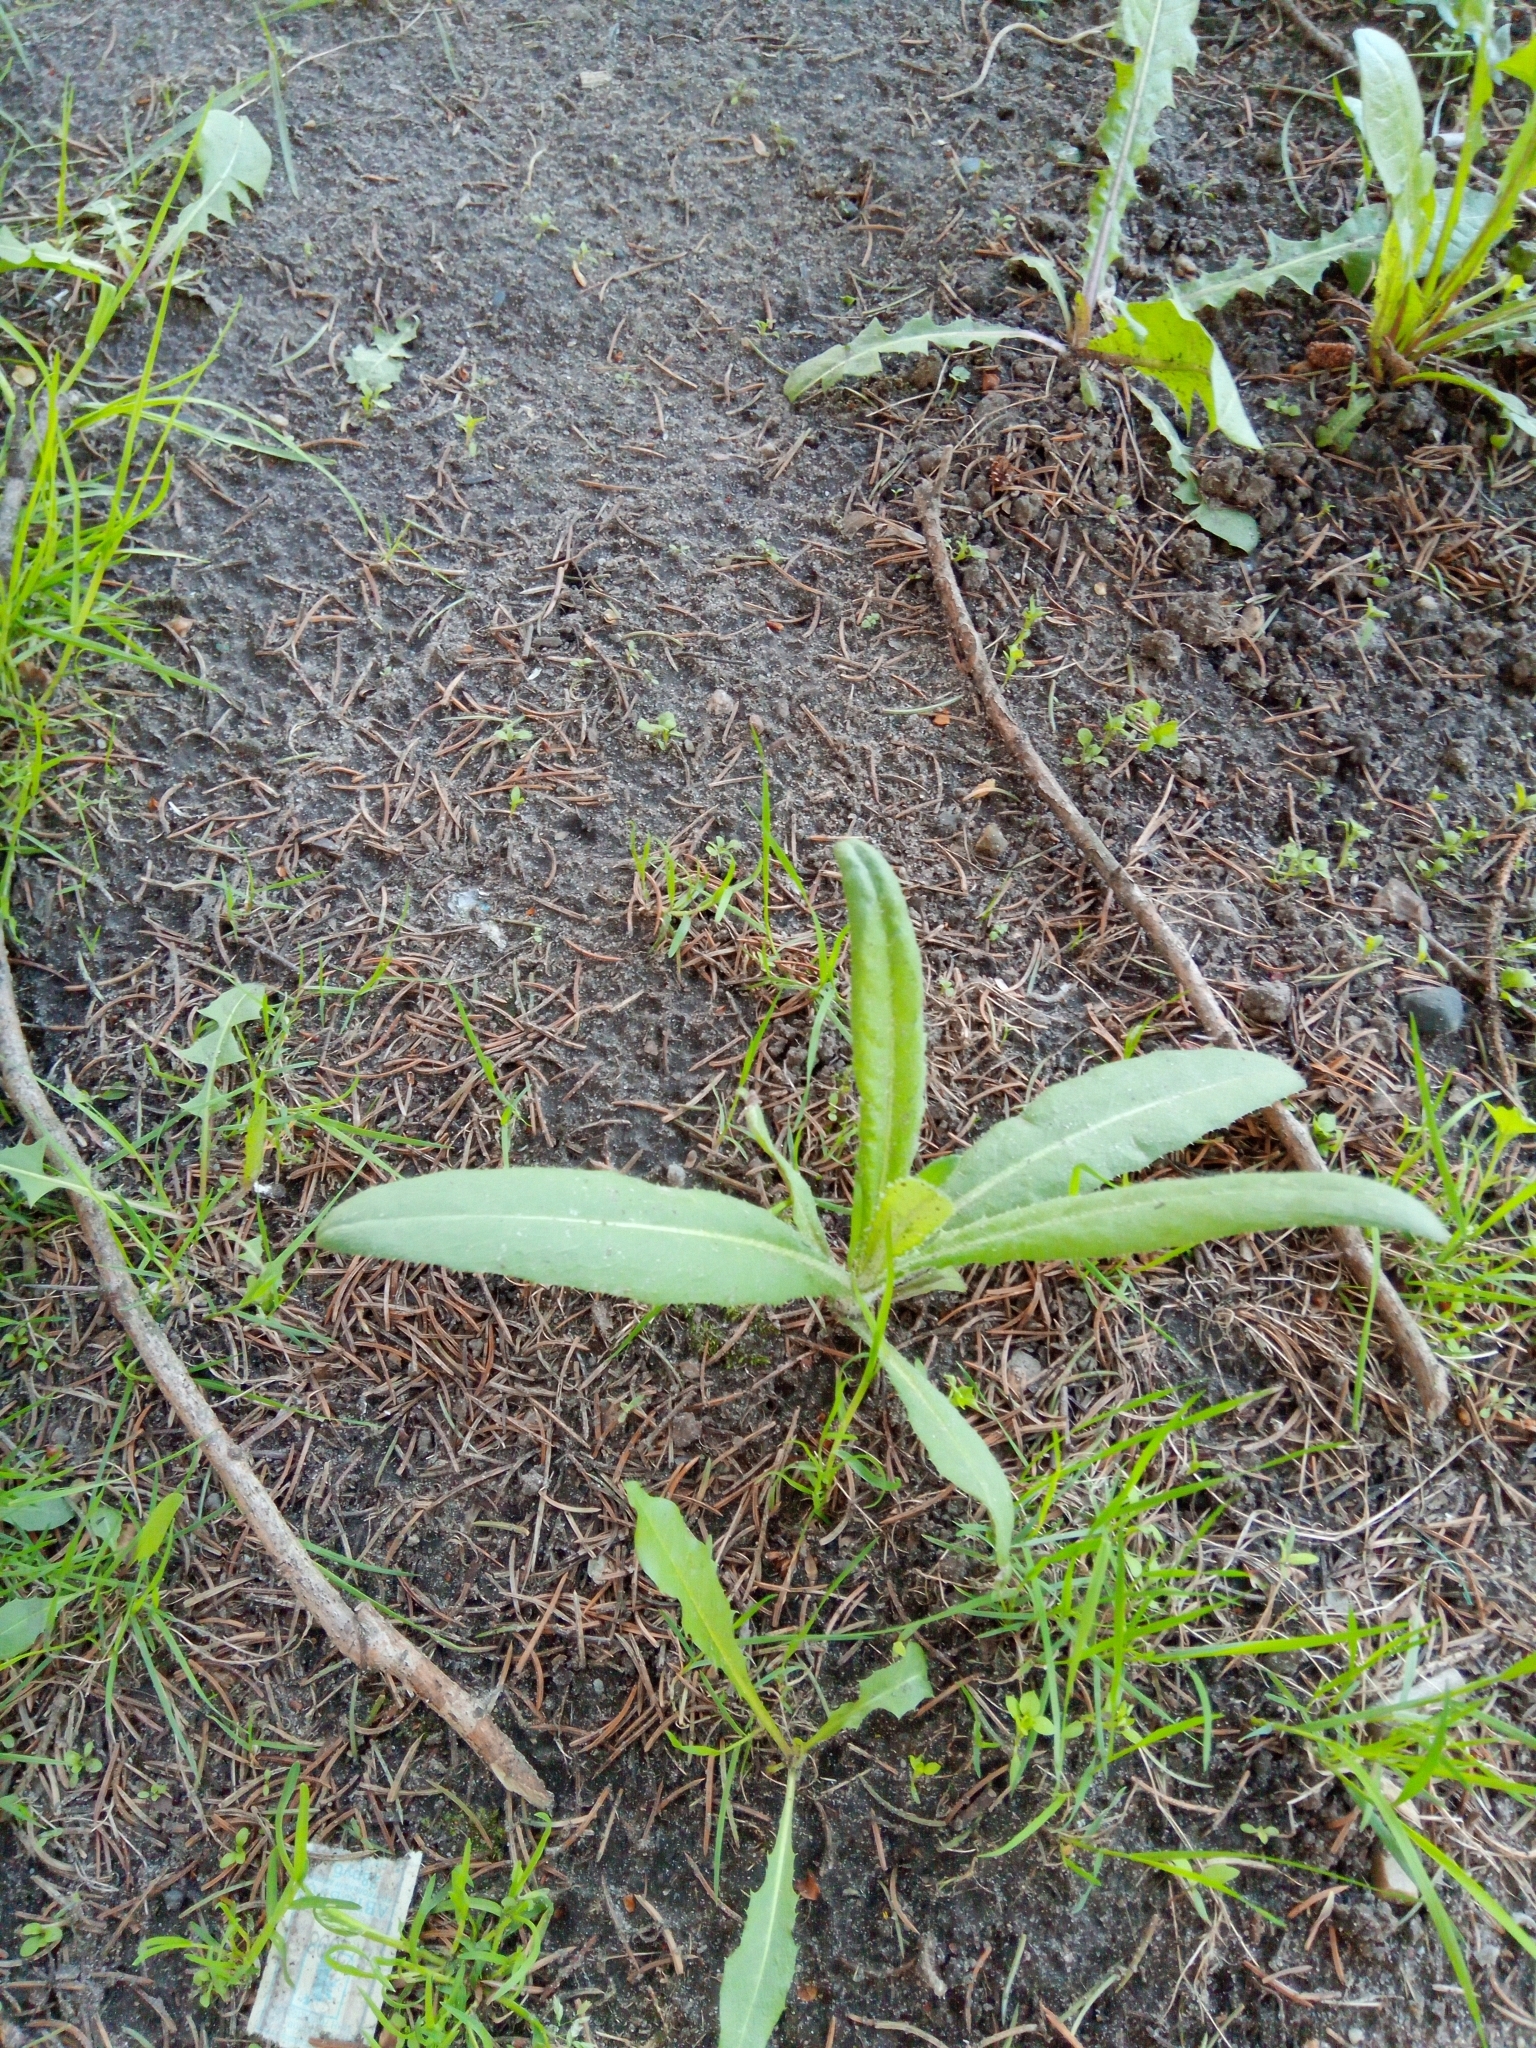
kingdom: Plantae
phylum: Tracheophyta
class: Magnoliopsida
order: Asterales
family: Asteraceae
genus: Cirsium
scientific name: Cirsium arvense
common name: Creeping thistle
